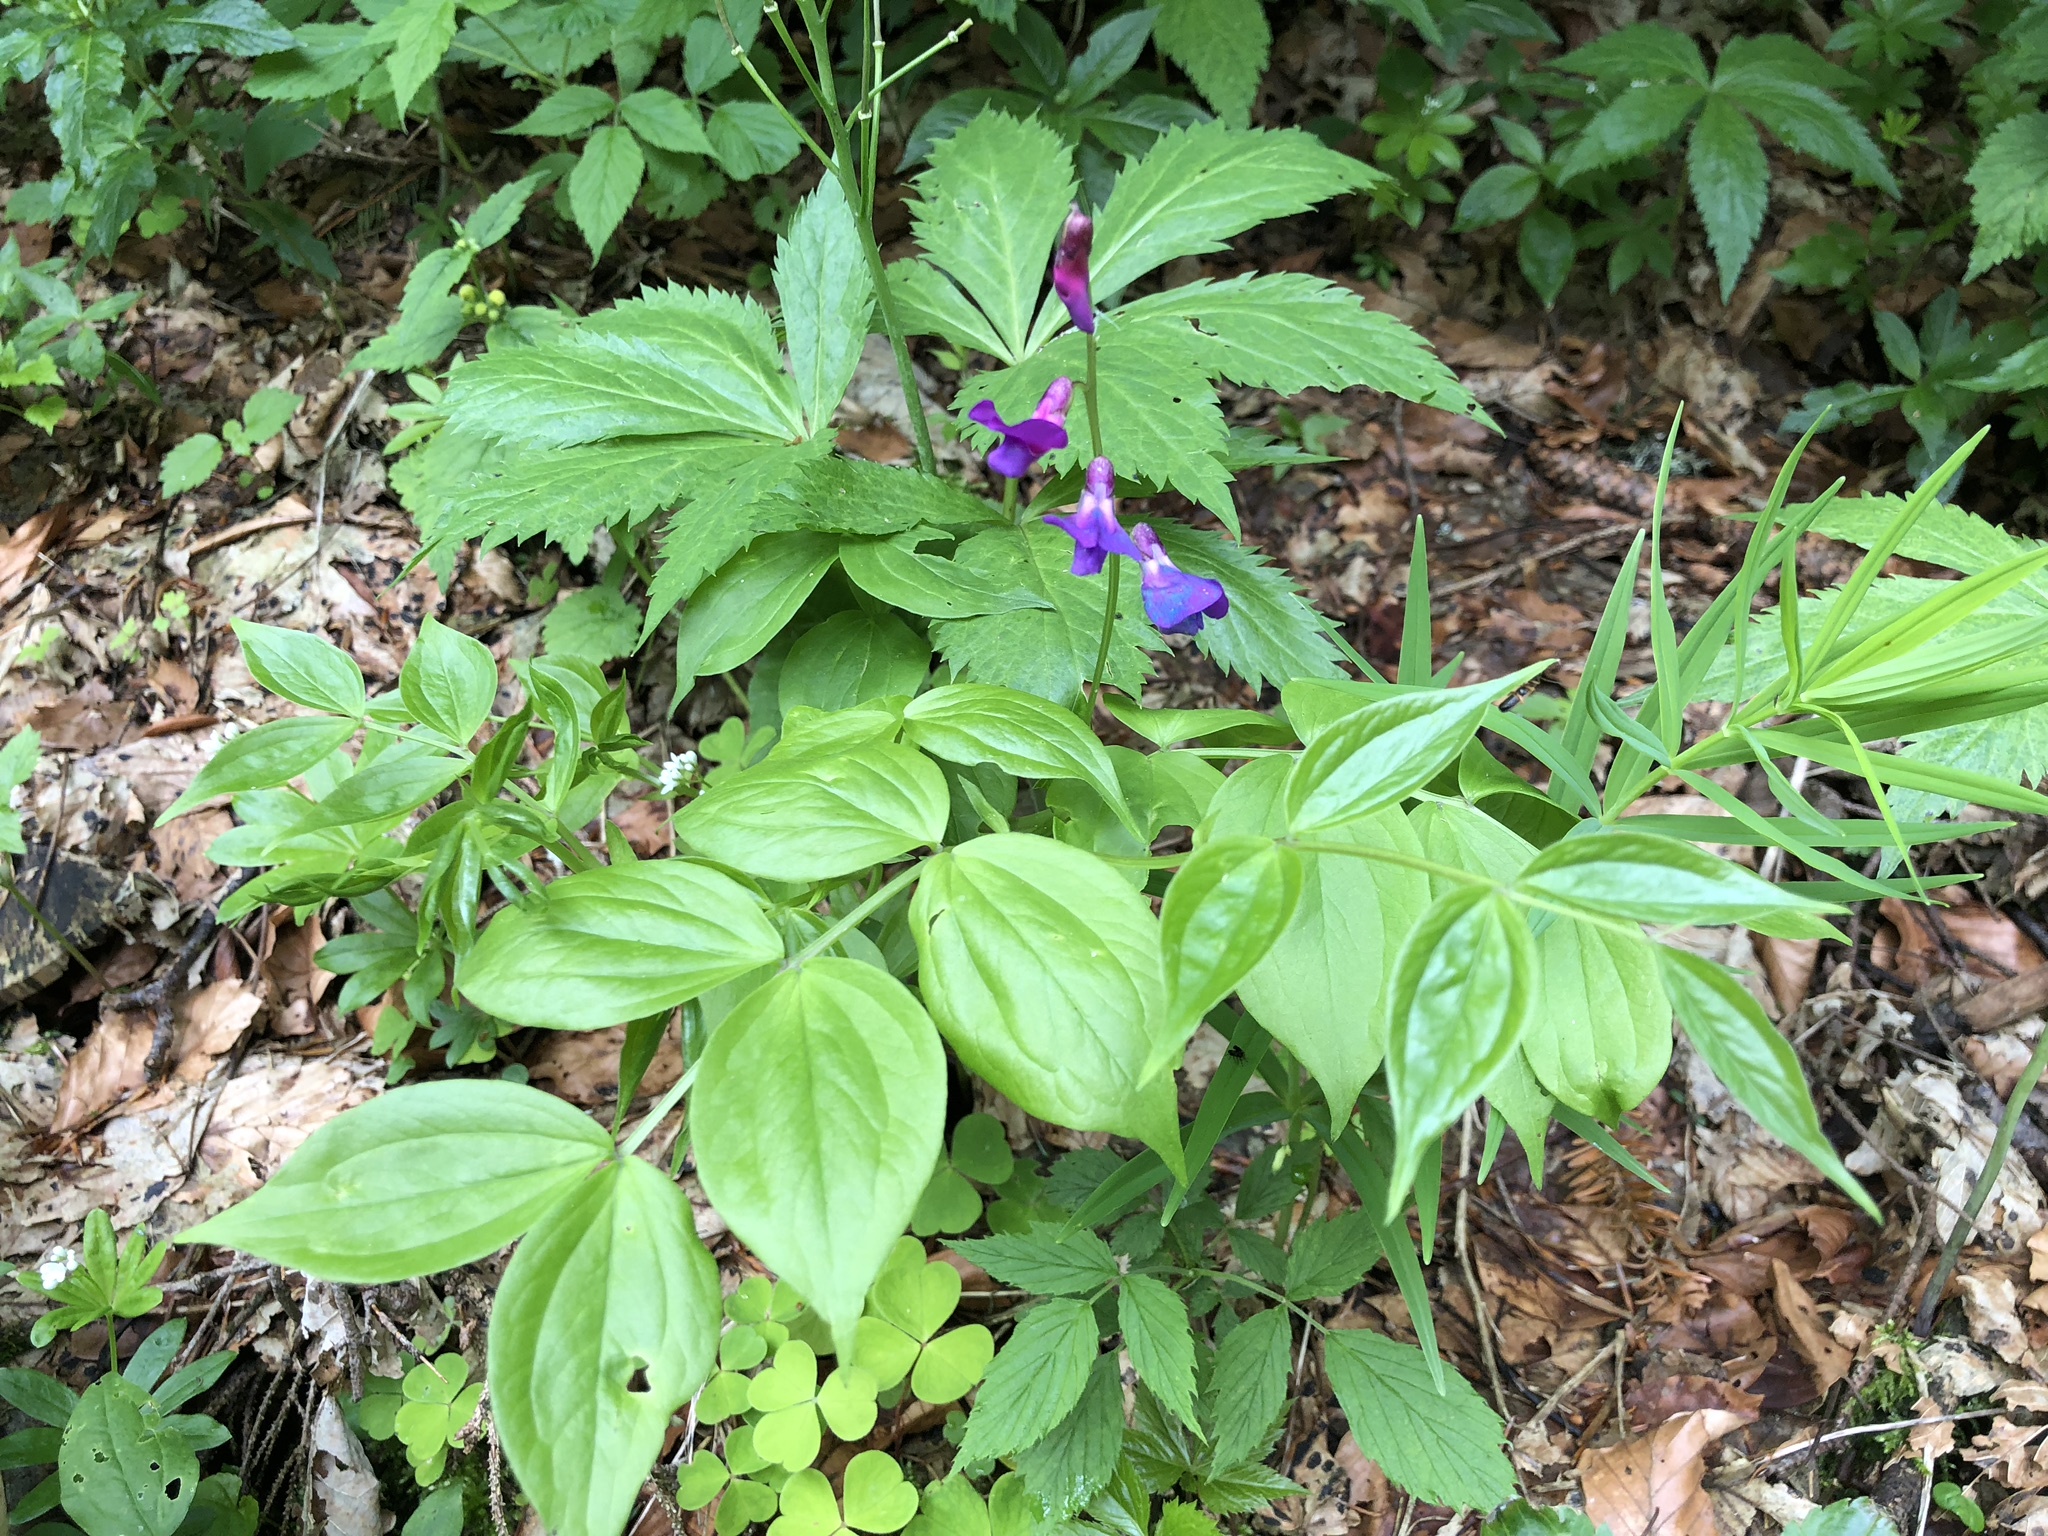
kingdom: Plantae
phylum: Tracheophyta
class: Magnoliopsida
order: Fabales
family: Fabaceae
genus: Lathyrus
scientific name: Lathyrus vernus
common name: Spring pea
